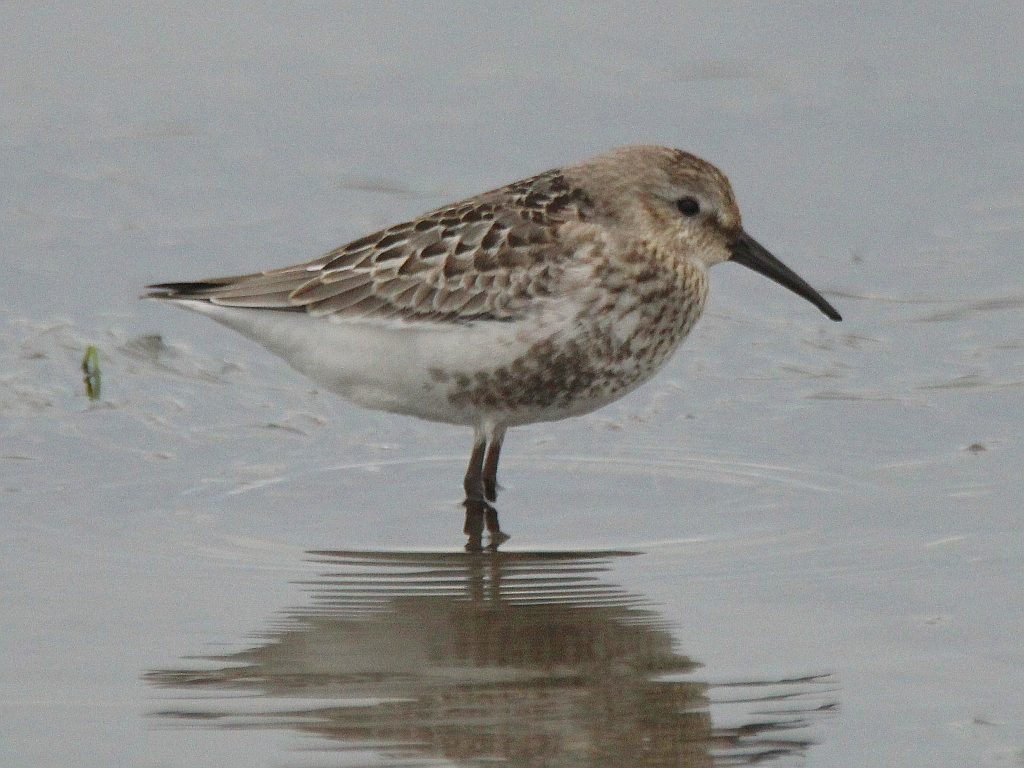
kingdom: Animalia
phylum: Chordata
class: Aves
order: Charadriiformes
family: Scolopacidae
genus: Calidris
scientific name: Calidris alpina
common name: Dunlin
